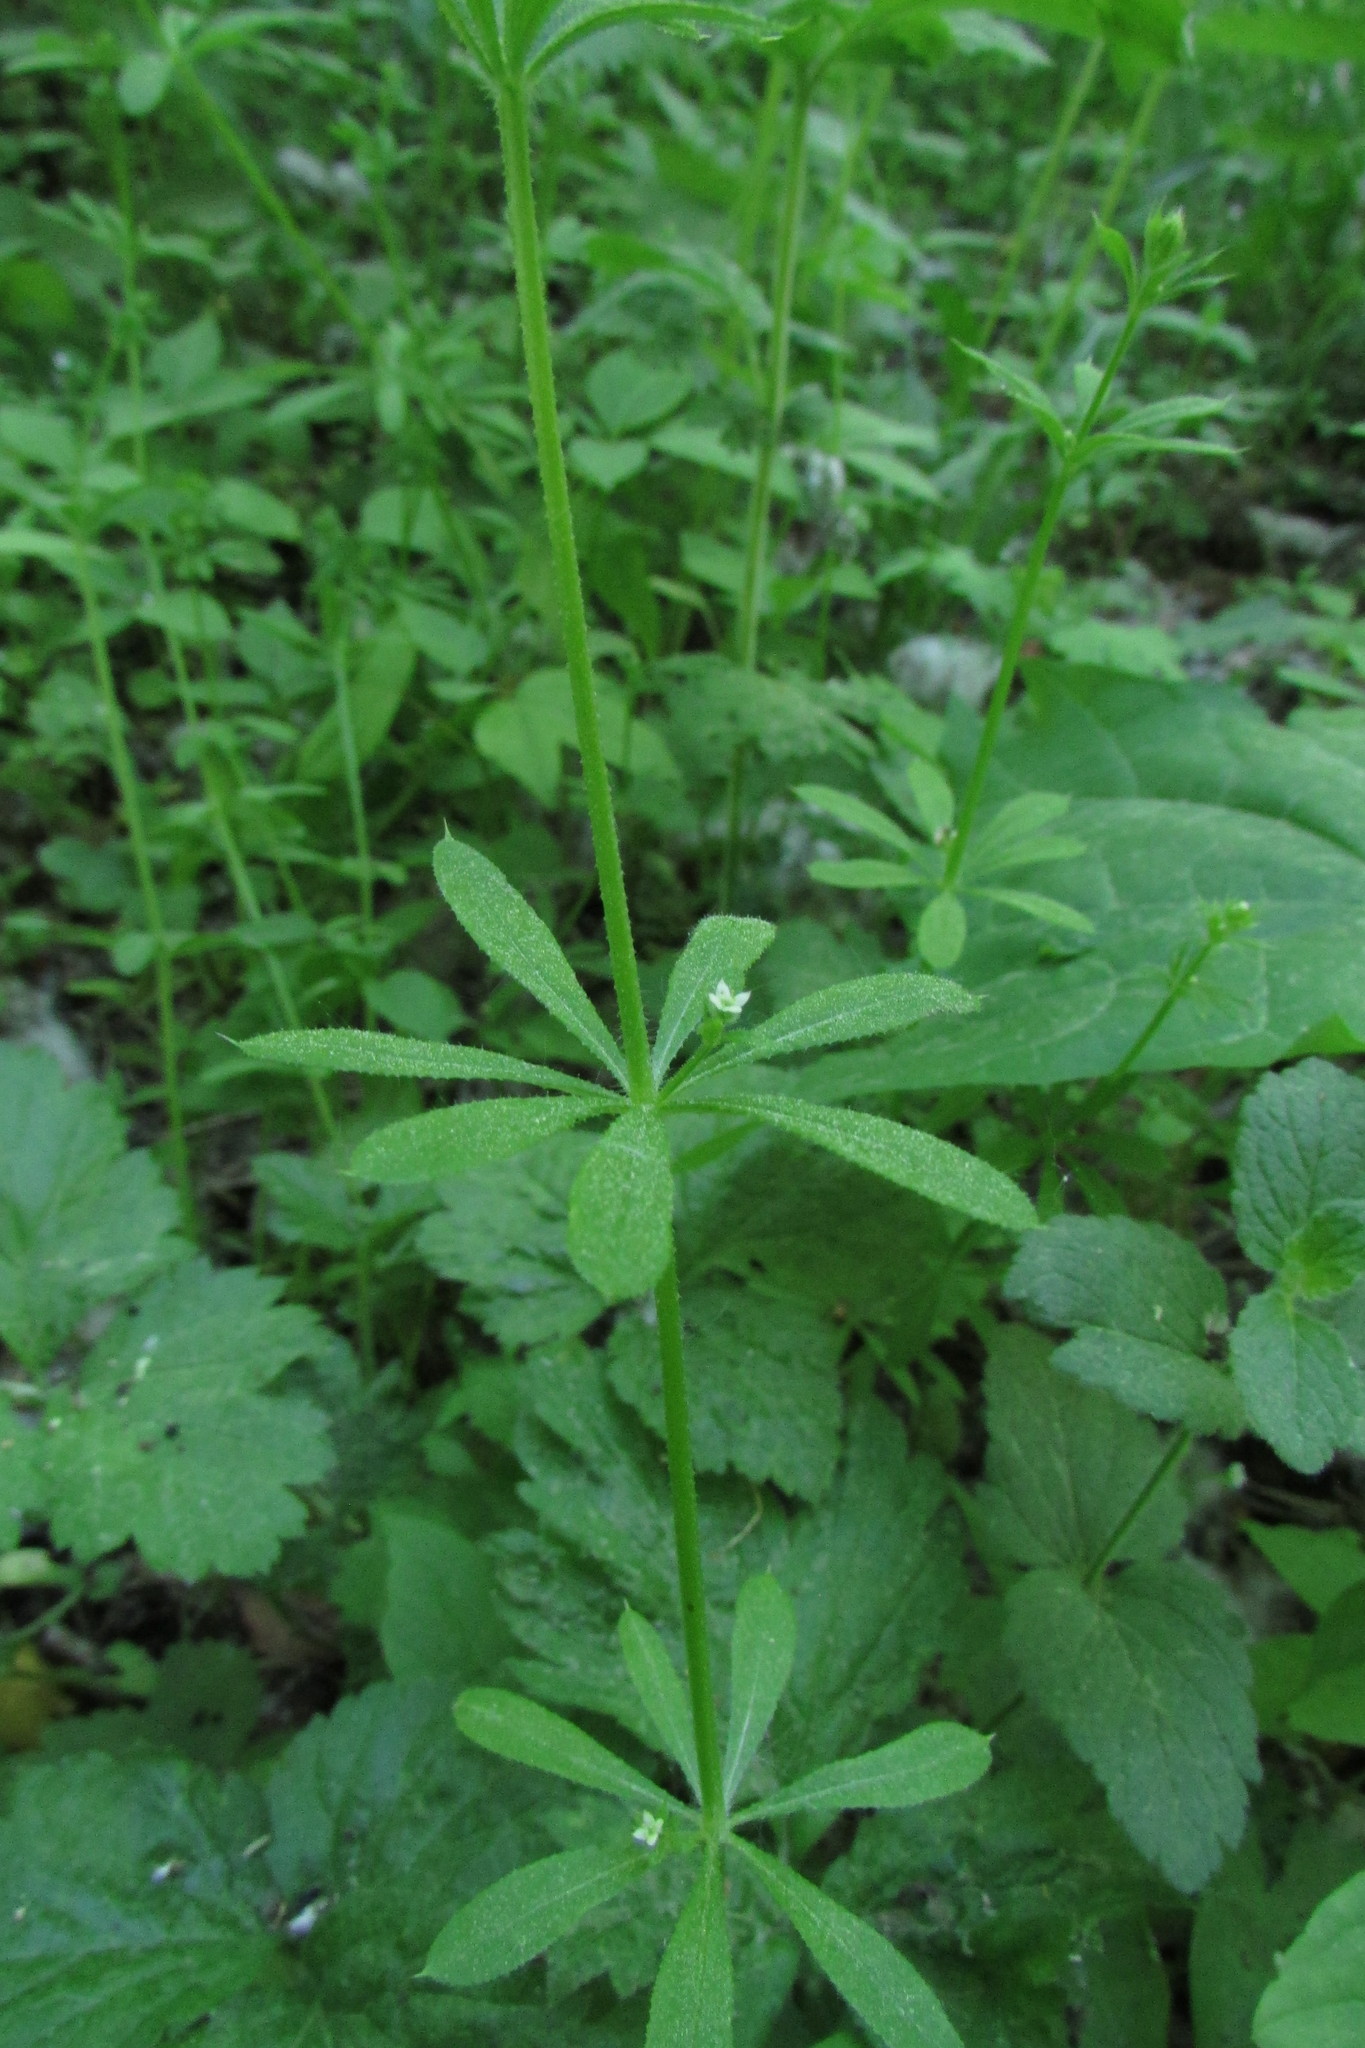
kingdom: Plantae
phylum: Tracheophyta
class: Magnoliopsida
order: Gentianales
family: Rubiaceae
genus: Galium
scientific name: Galium aparine
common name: Cleavers
